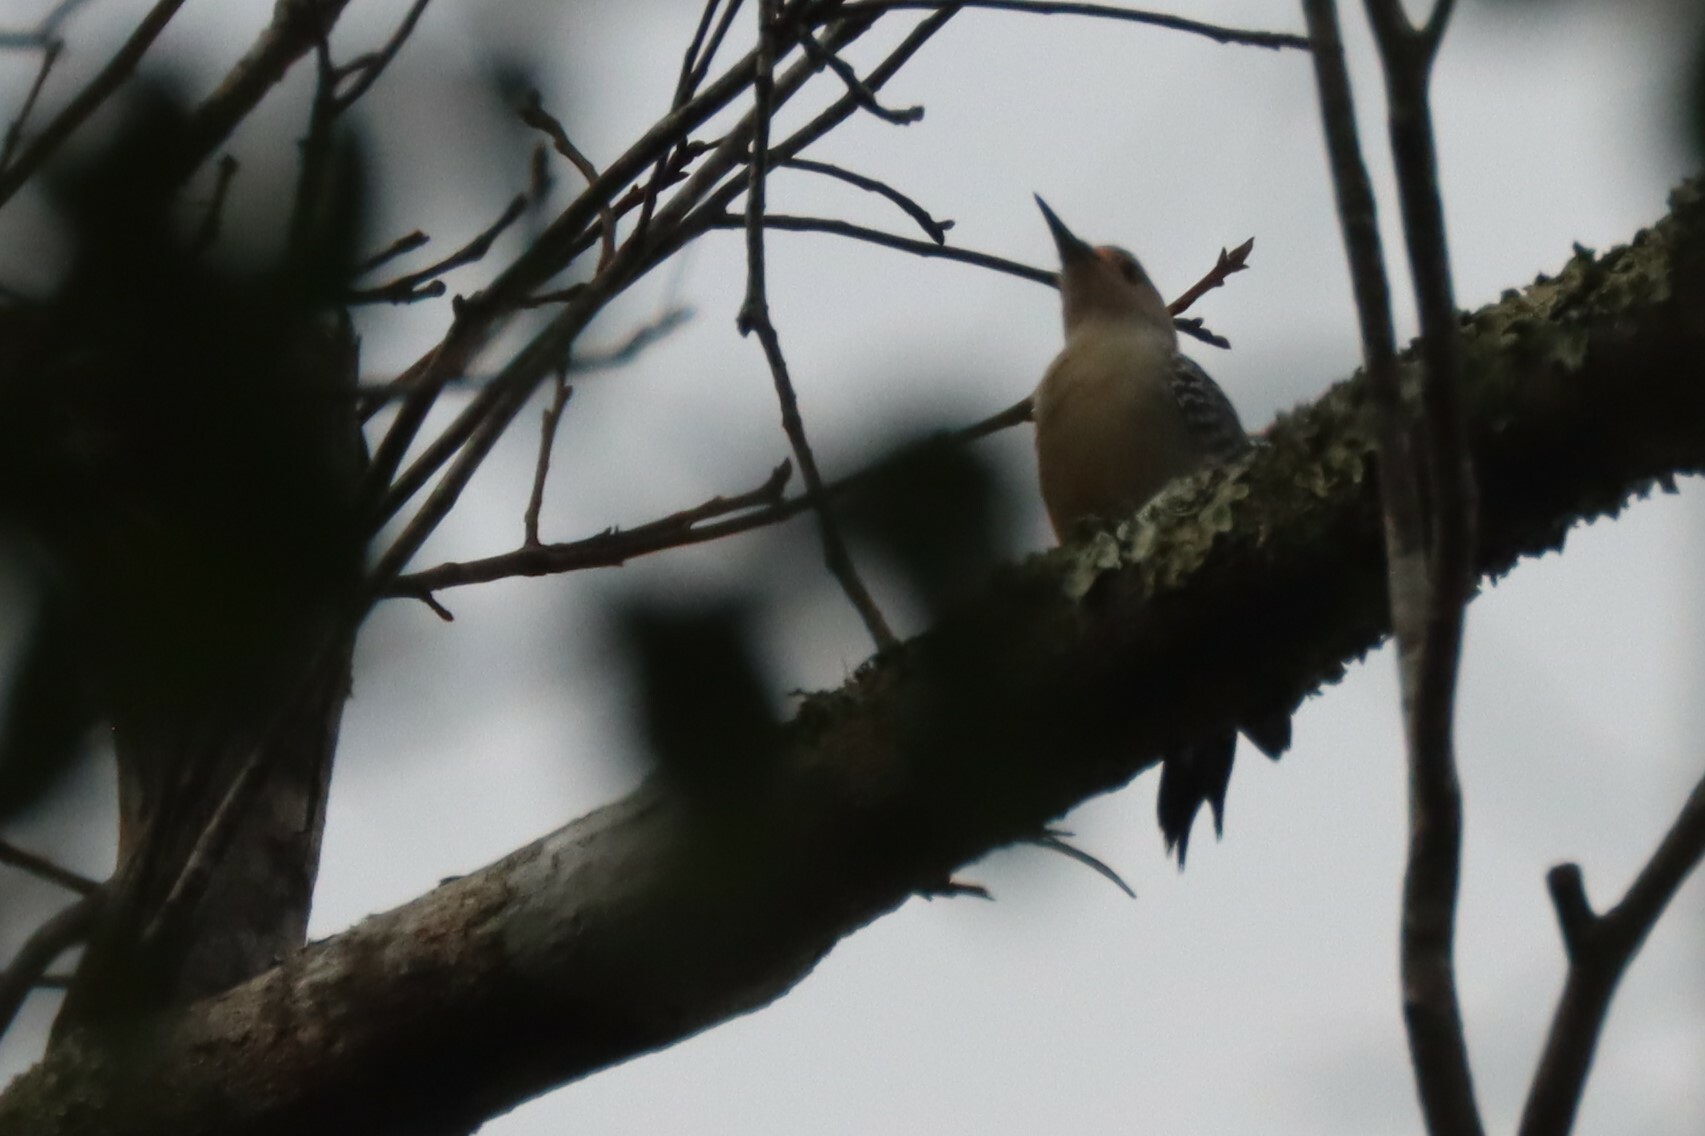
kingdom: Animalia
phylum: Chordata
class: Aves
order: Piciformes
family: Picidae
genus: Melanerpes
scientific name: Melanerpes carolinus
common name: Red-bellied woodpecker
